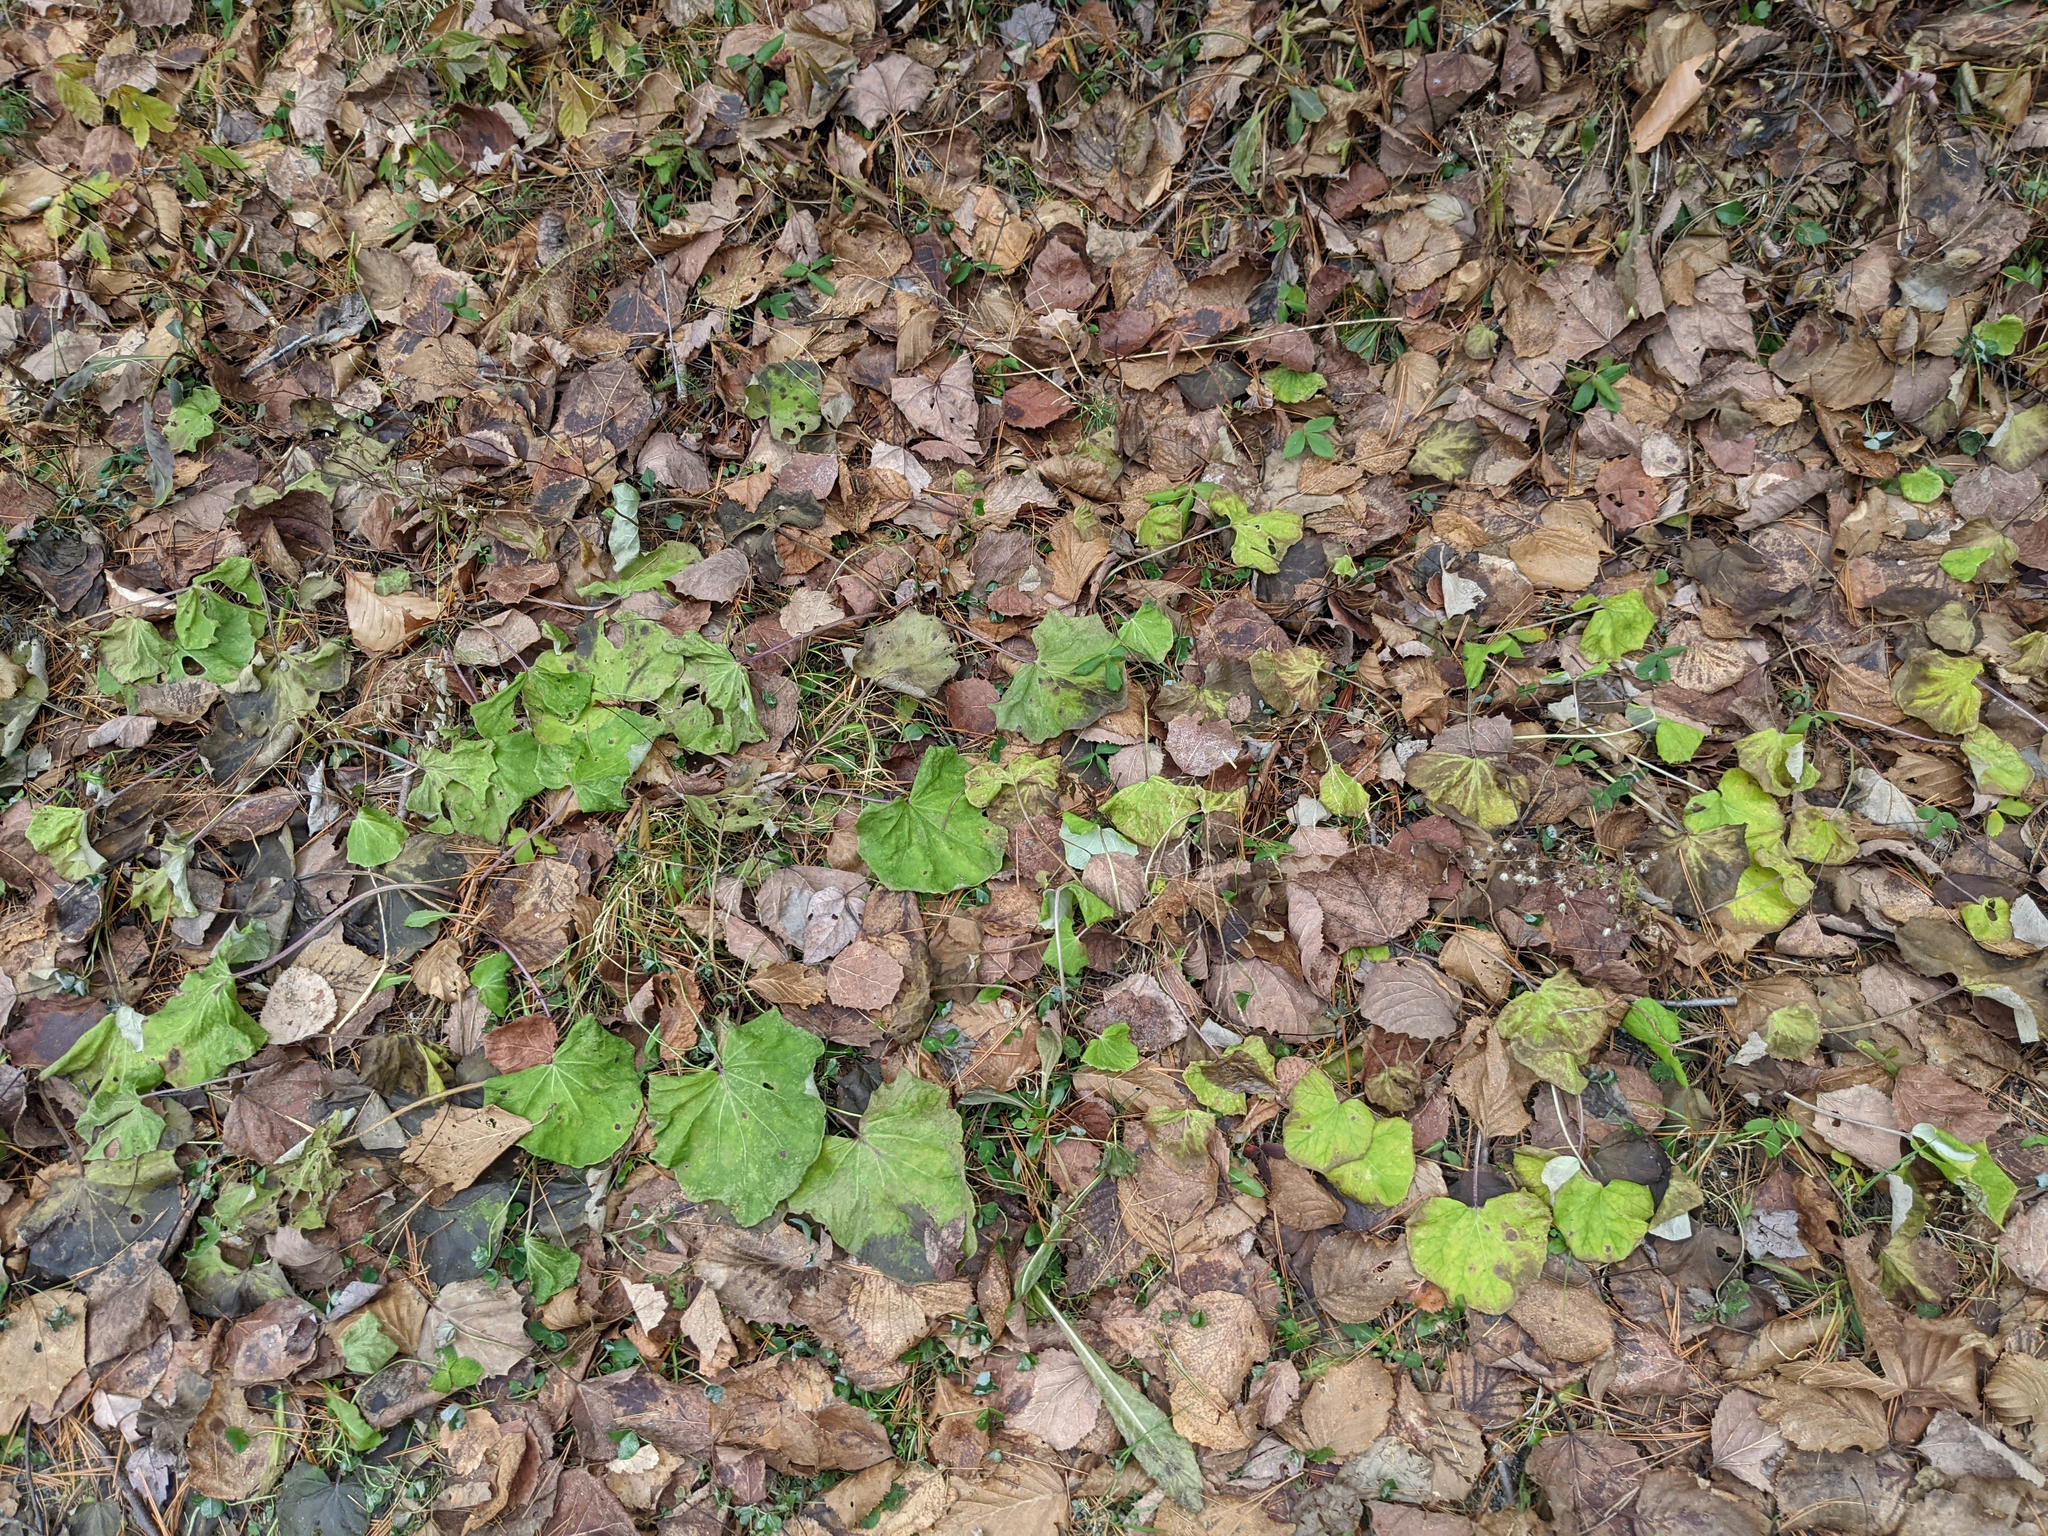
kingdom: Plantae
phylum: Tracheophyta
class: Magnoliopsida
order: Asterales
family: Asteraceae
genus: Tussilago
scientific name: Tussilago farfara
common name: Coltsfoot
